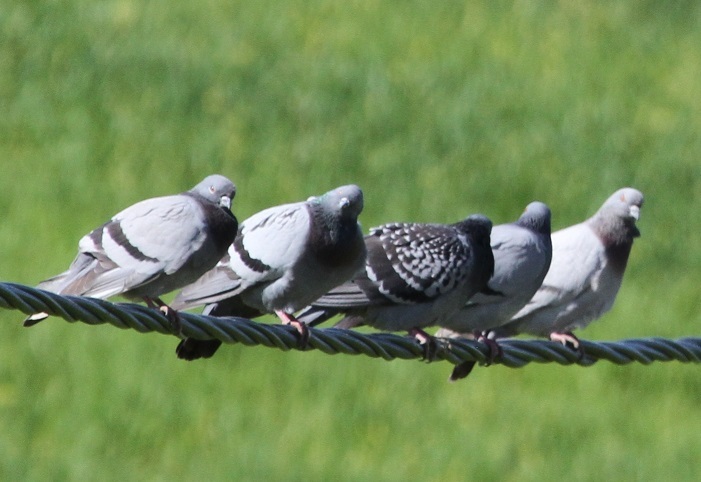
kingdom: Animalia
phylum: Chordata
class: Aves
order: Columbiformes
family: Columbidae
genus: Columba
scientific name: Columba livia
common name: Rock pigeon
